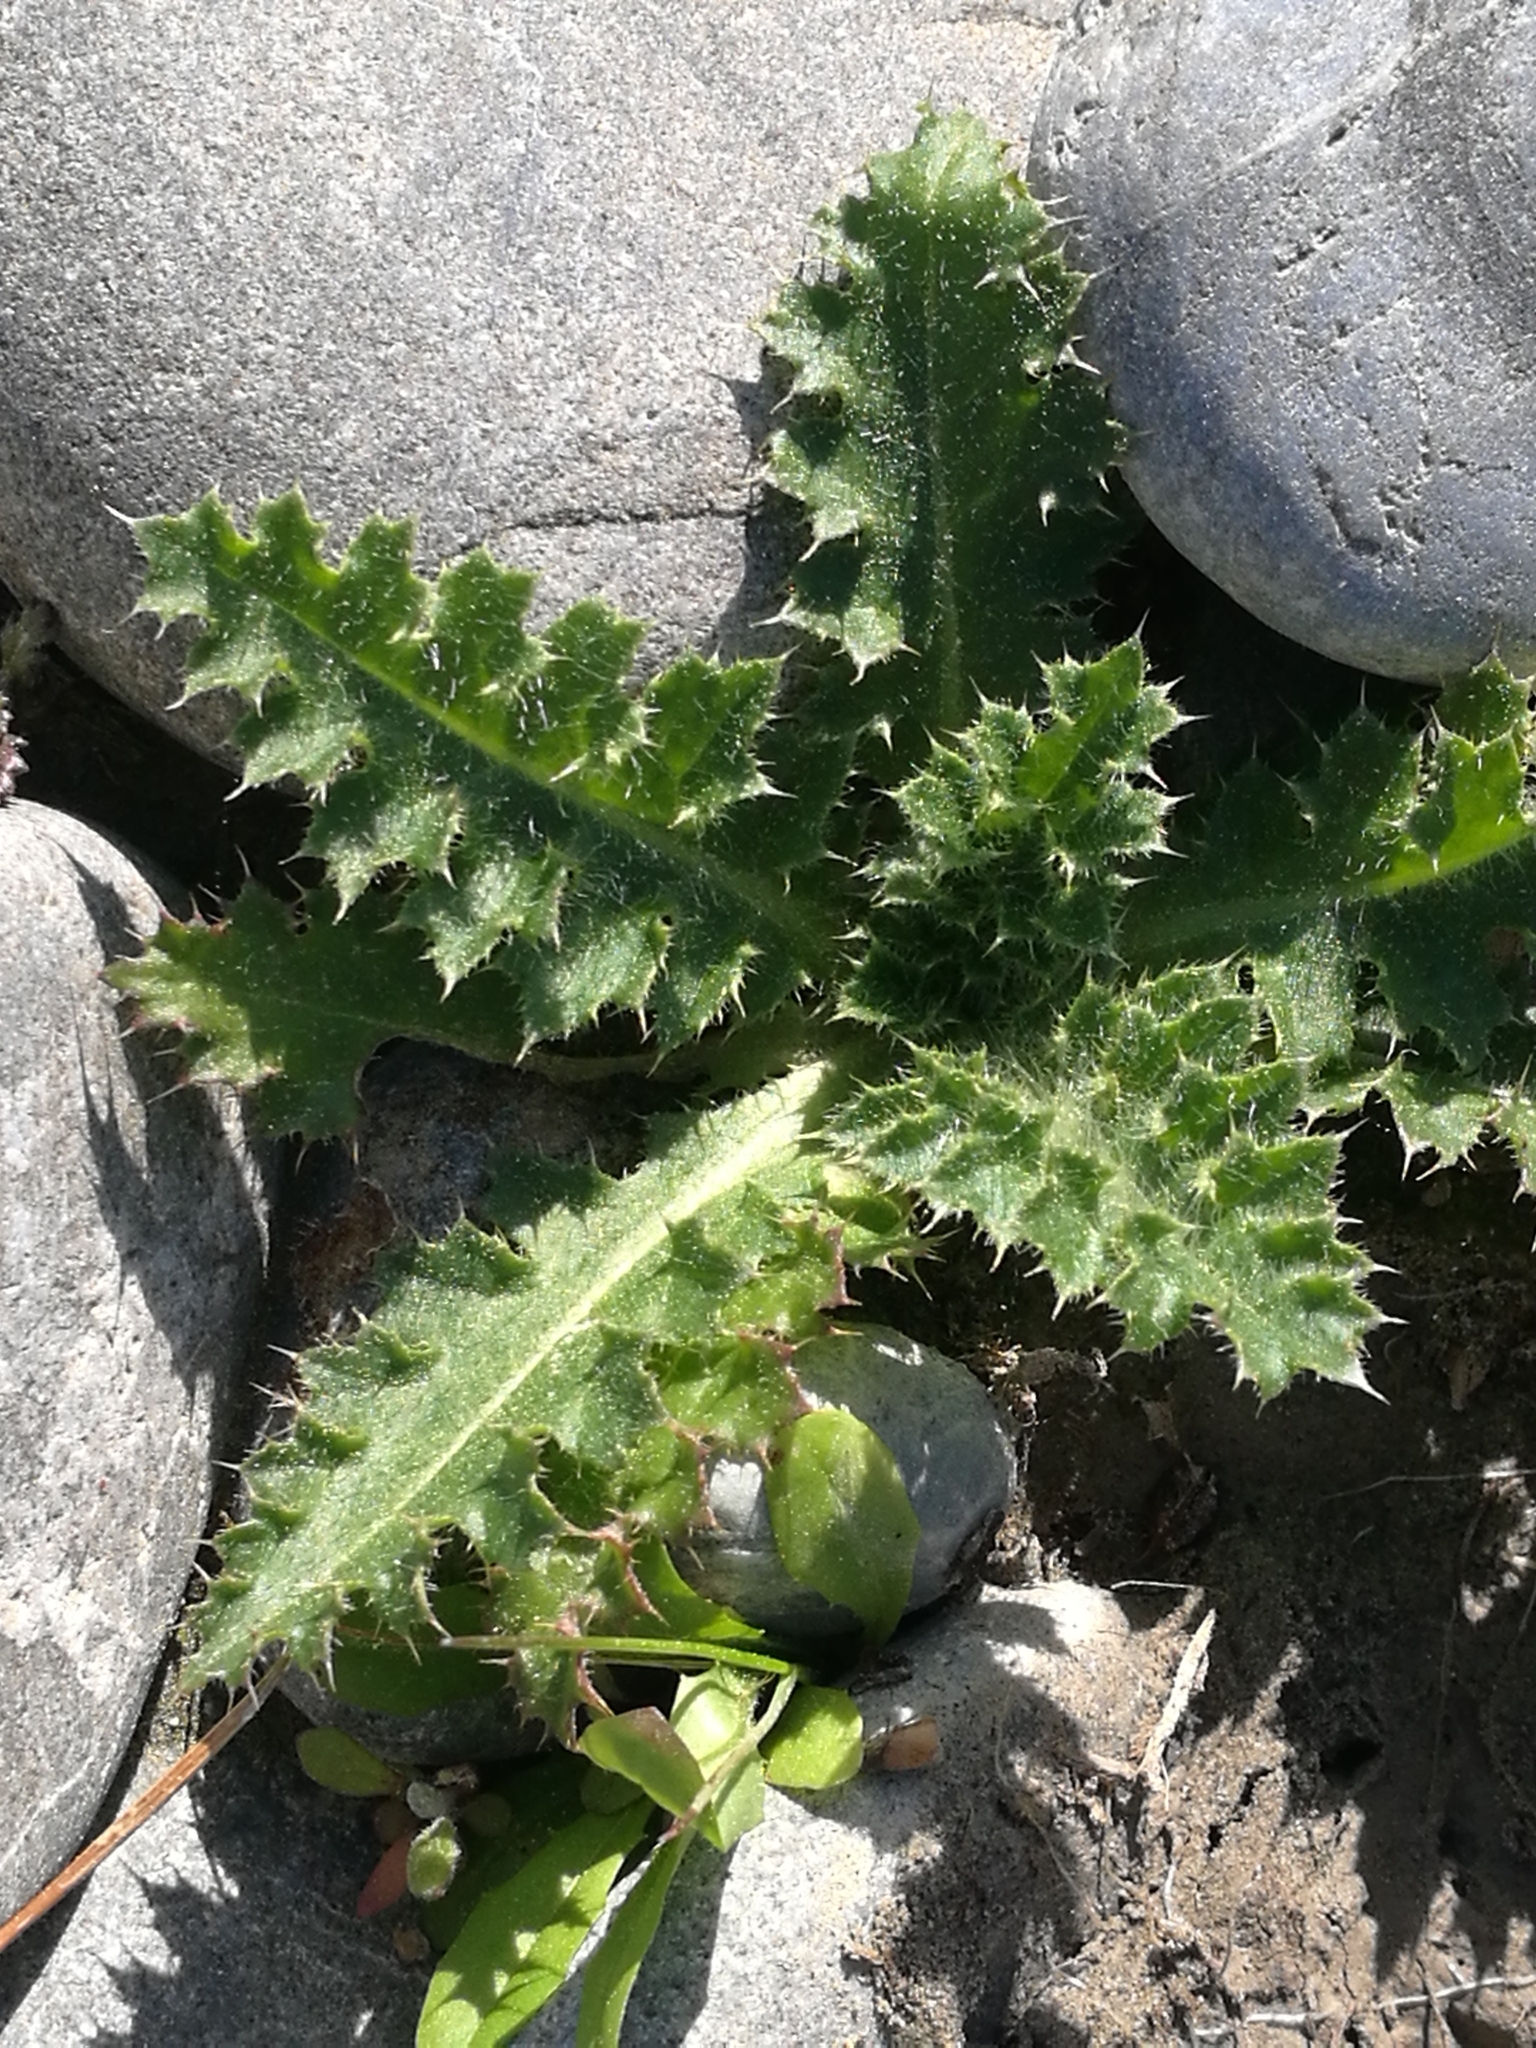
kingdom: Plantae
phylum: Tracheophyta
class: Magnoliopsida
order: Asterales
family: Asteraceae
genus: Cirsium
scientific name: Cirsium vulgare
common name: Bull thistle
